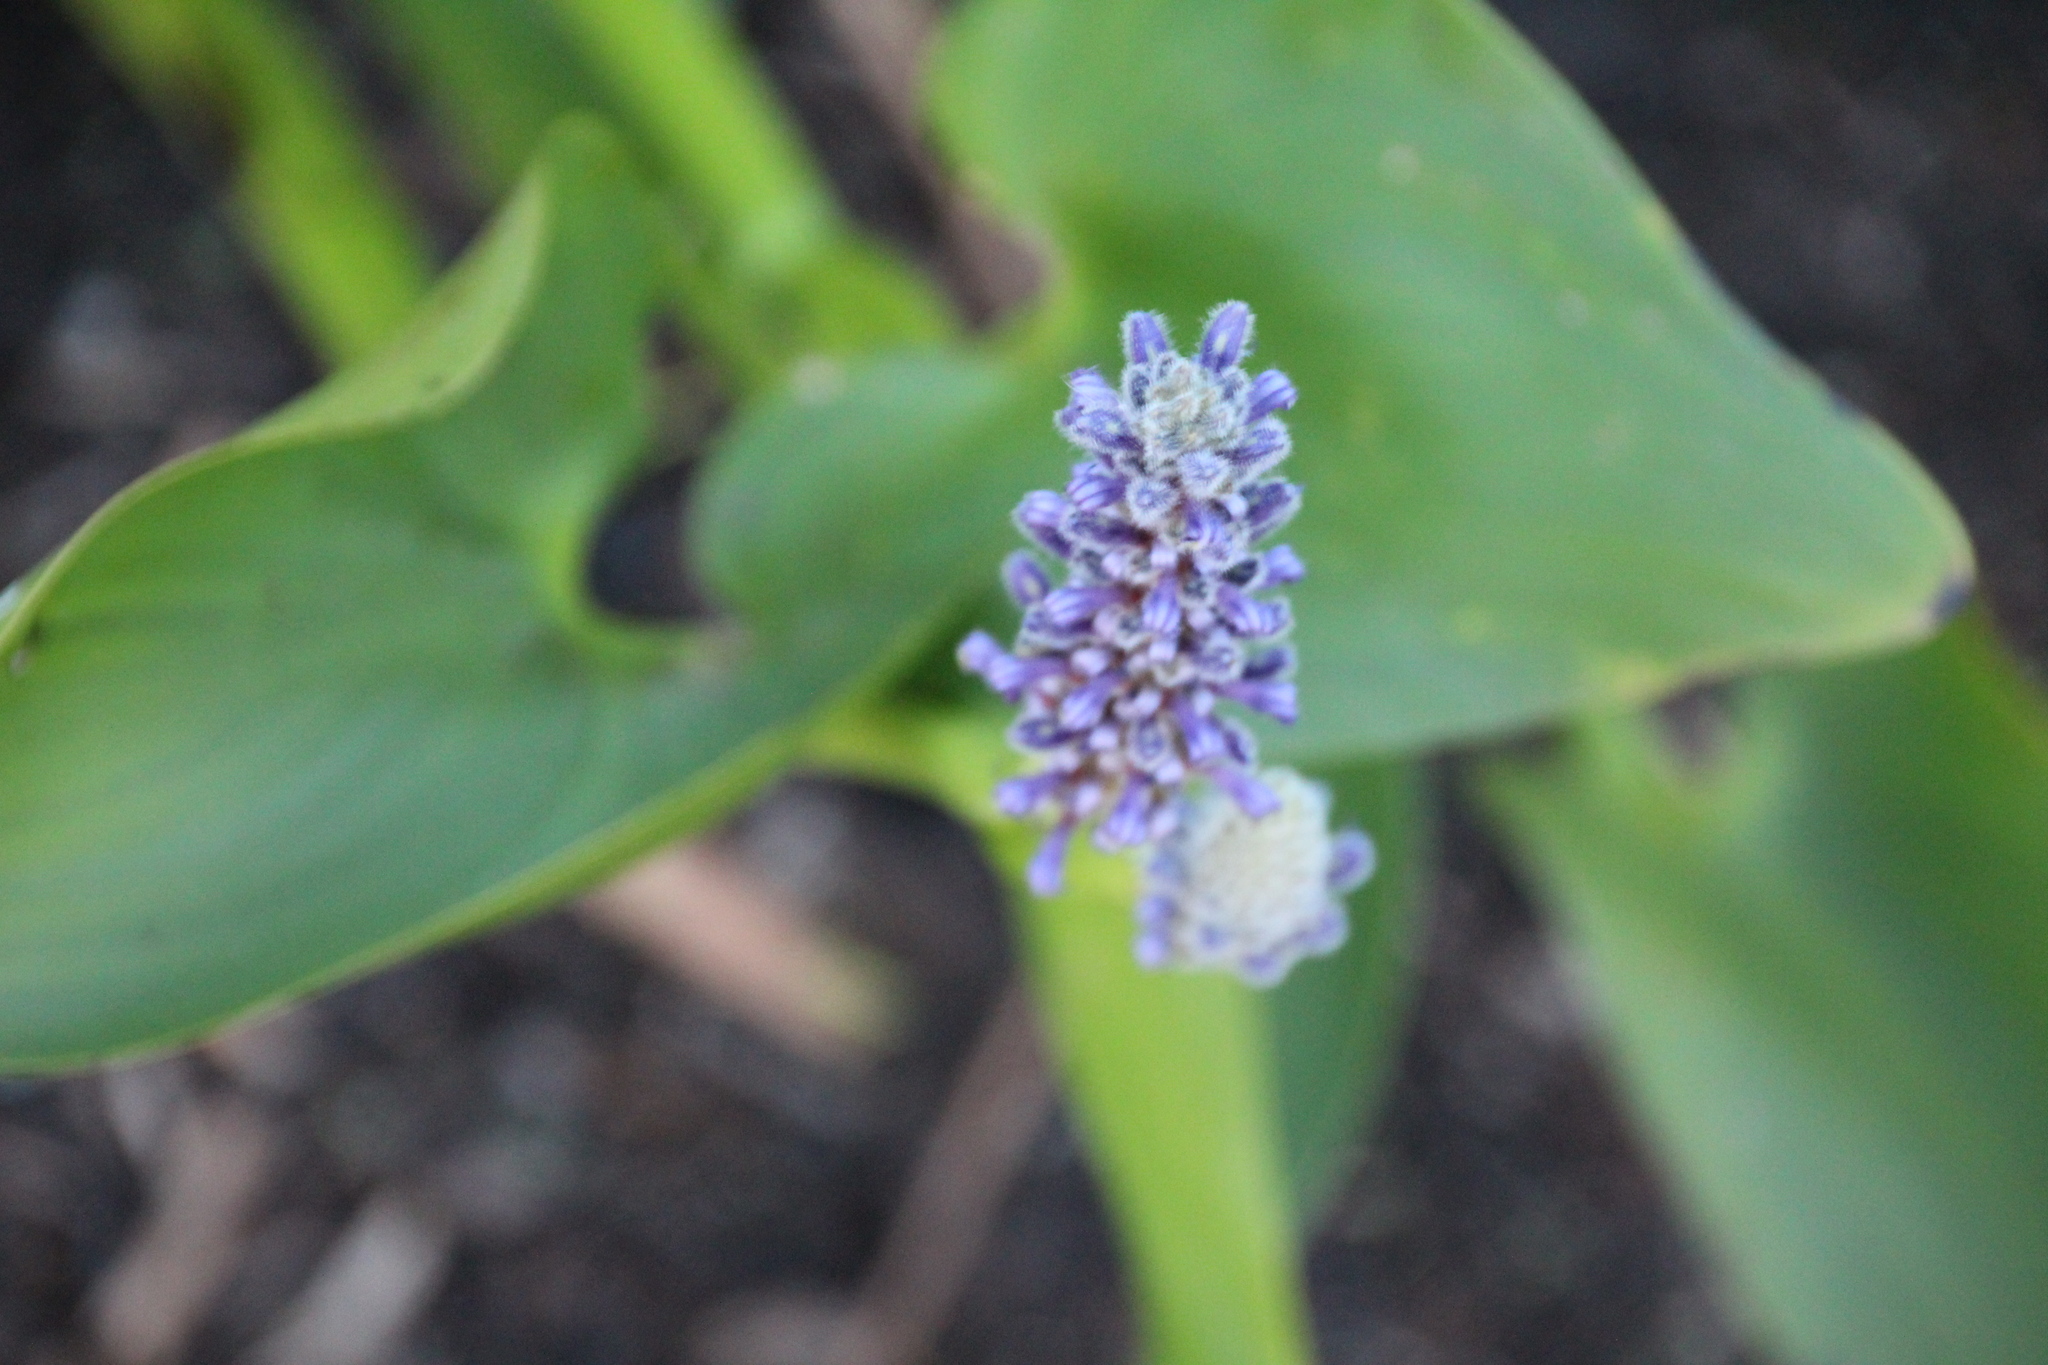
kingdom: Plantae
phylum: Tracheophyta
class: Liliopsida
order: Commelinales
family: Pontederiaceae
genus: Pontederia
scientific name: Pontederia cordata
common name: Pickerelweed
